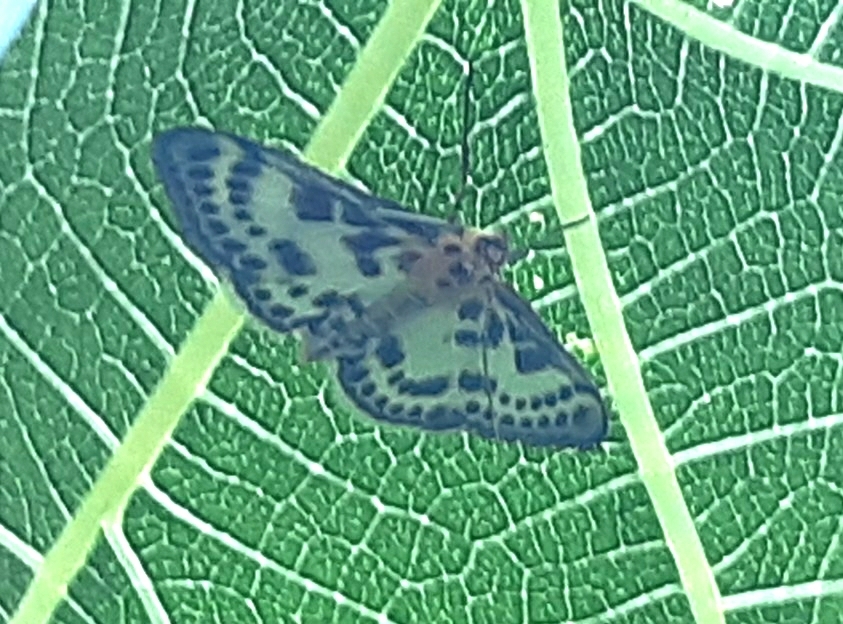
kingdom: Animalia
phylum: Arthropoda
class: Insecta
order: Lepidoptera
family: Crambidae
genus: Anania
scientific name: Anania hortulata
